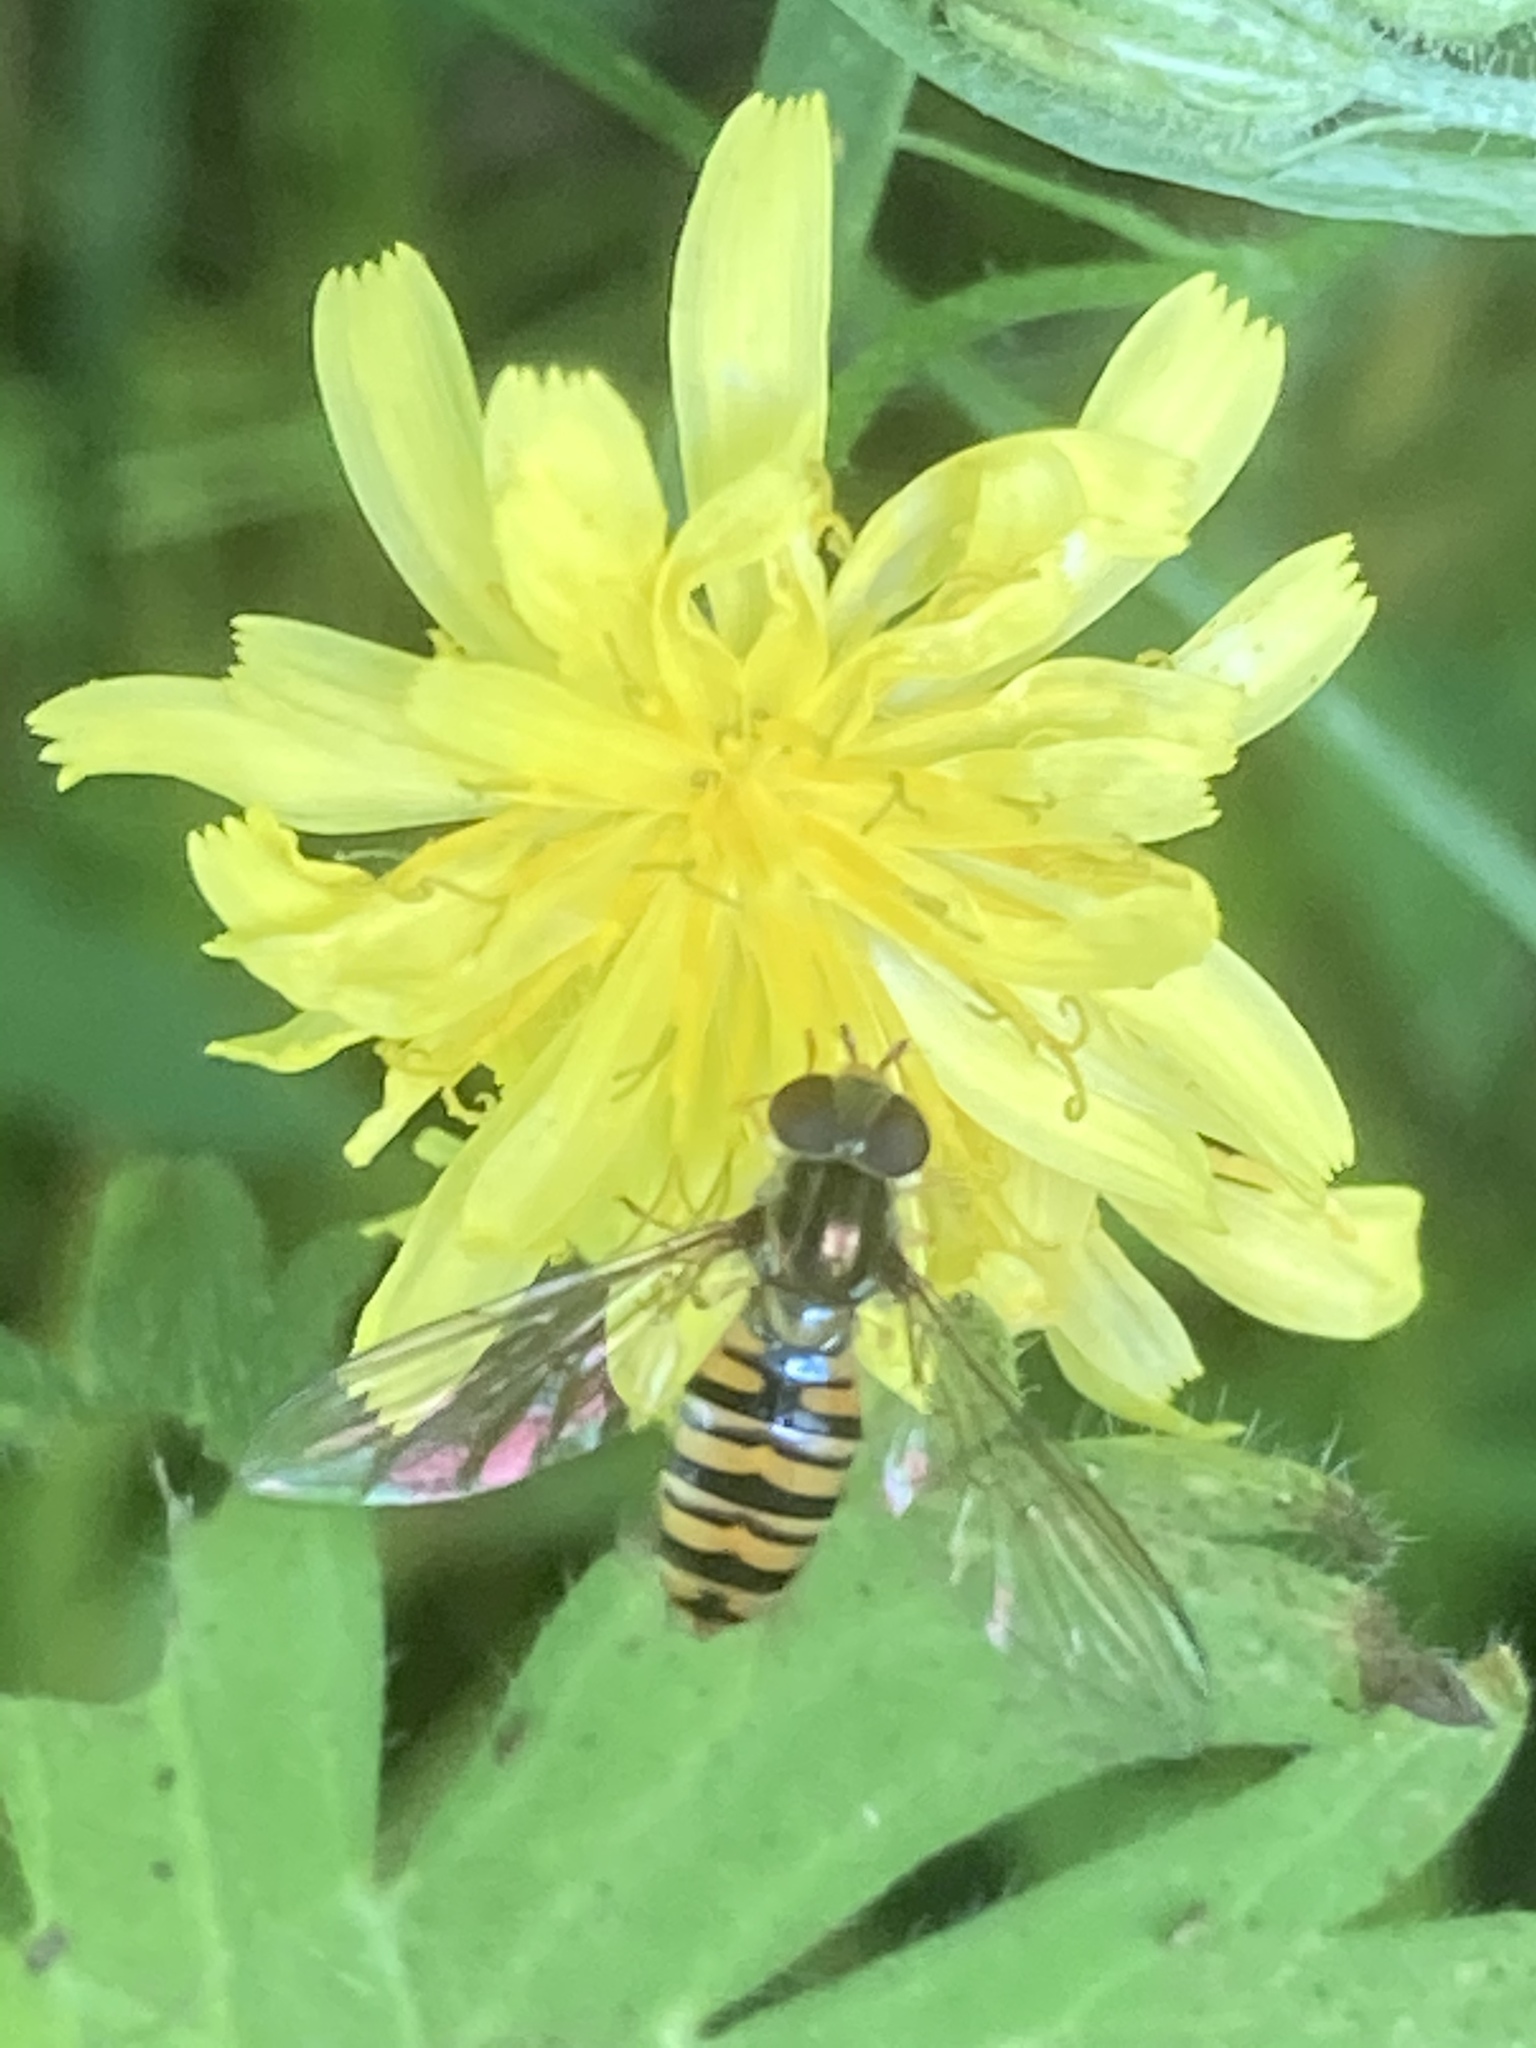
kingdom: Animalia
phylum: Arthropoda
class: Insecta
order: Diptera
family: Syrphidae
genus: Episyrphus
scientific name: Episyrphus balteatus
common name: Marmalade hoverfly
